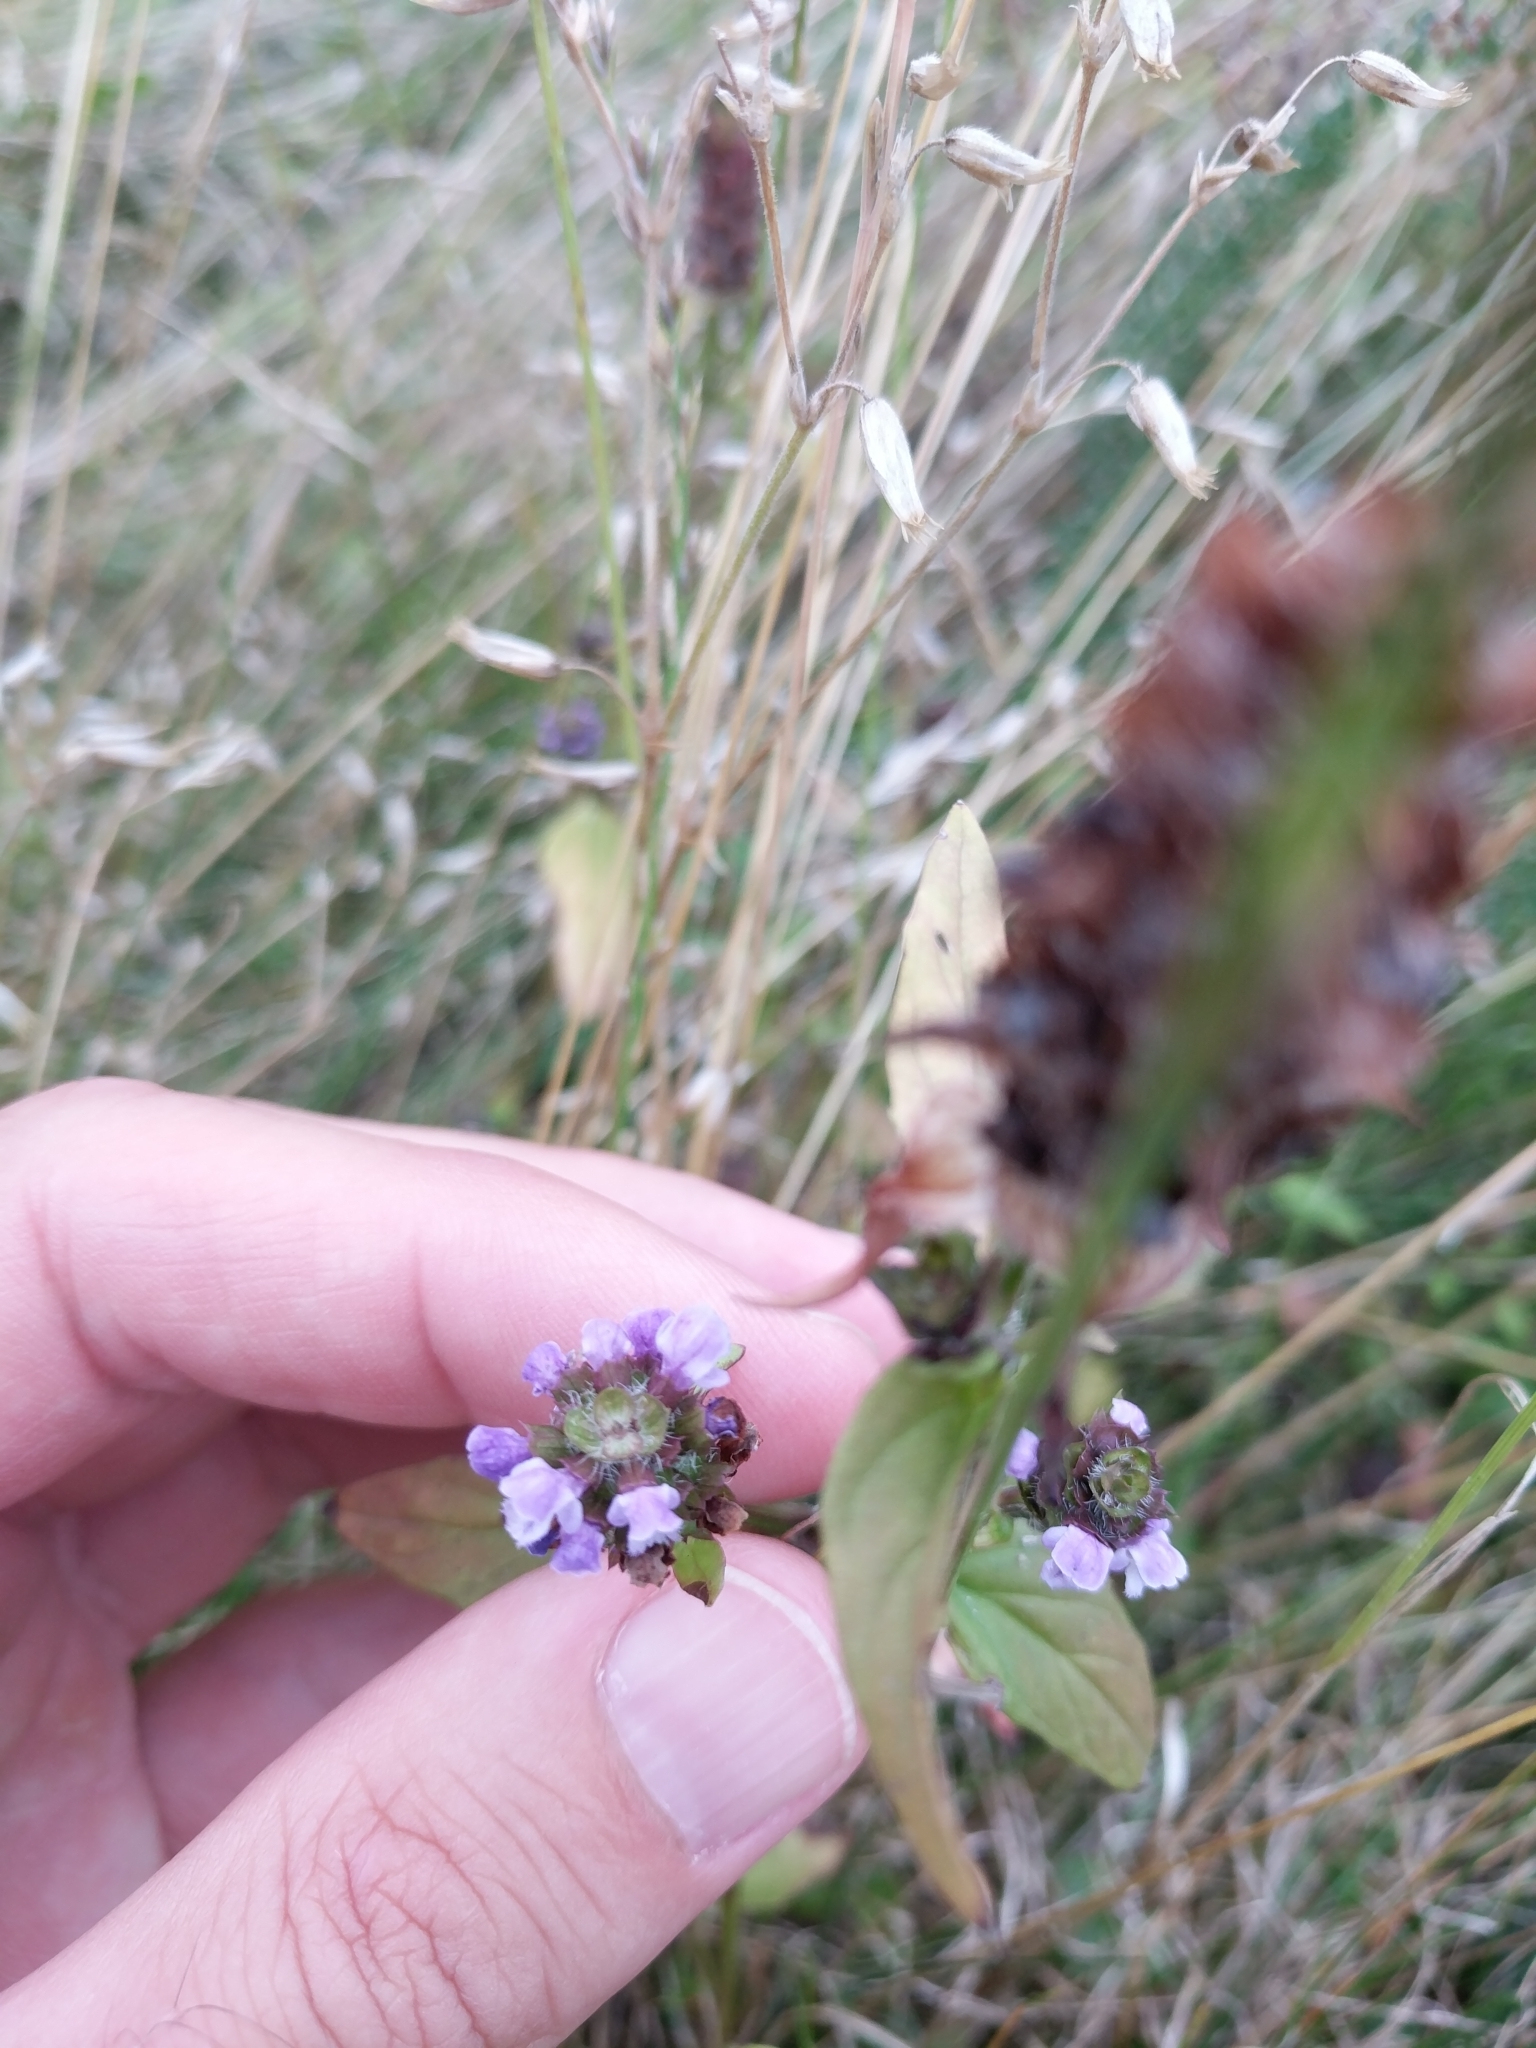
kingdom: Plantae
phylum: Tracheophyta
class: Magnoliopsida
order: Lamiales
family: Lamiaceae
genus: Prunella
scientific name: Prunella vulgaris
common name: Heal-all
